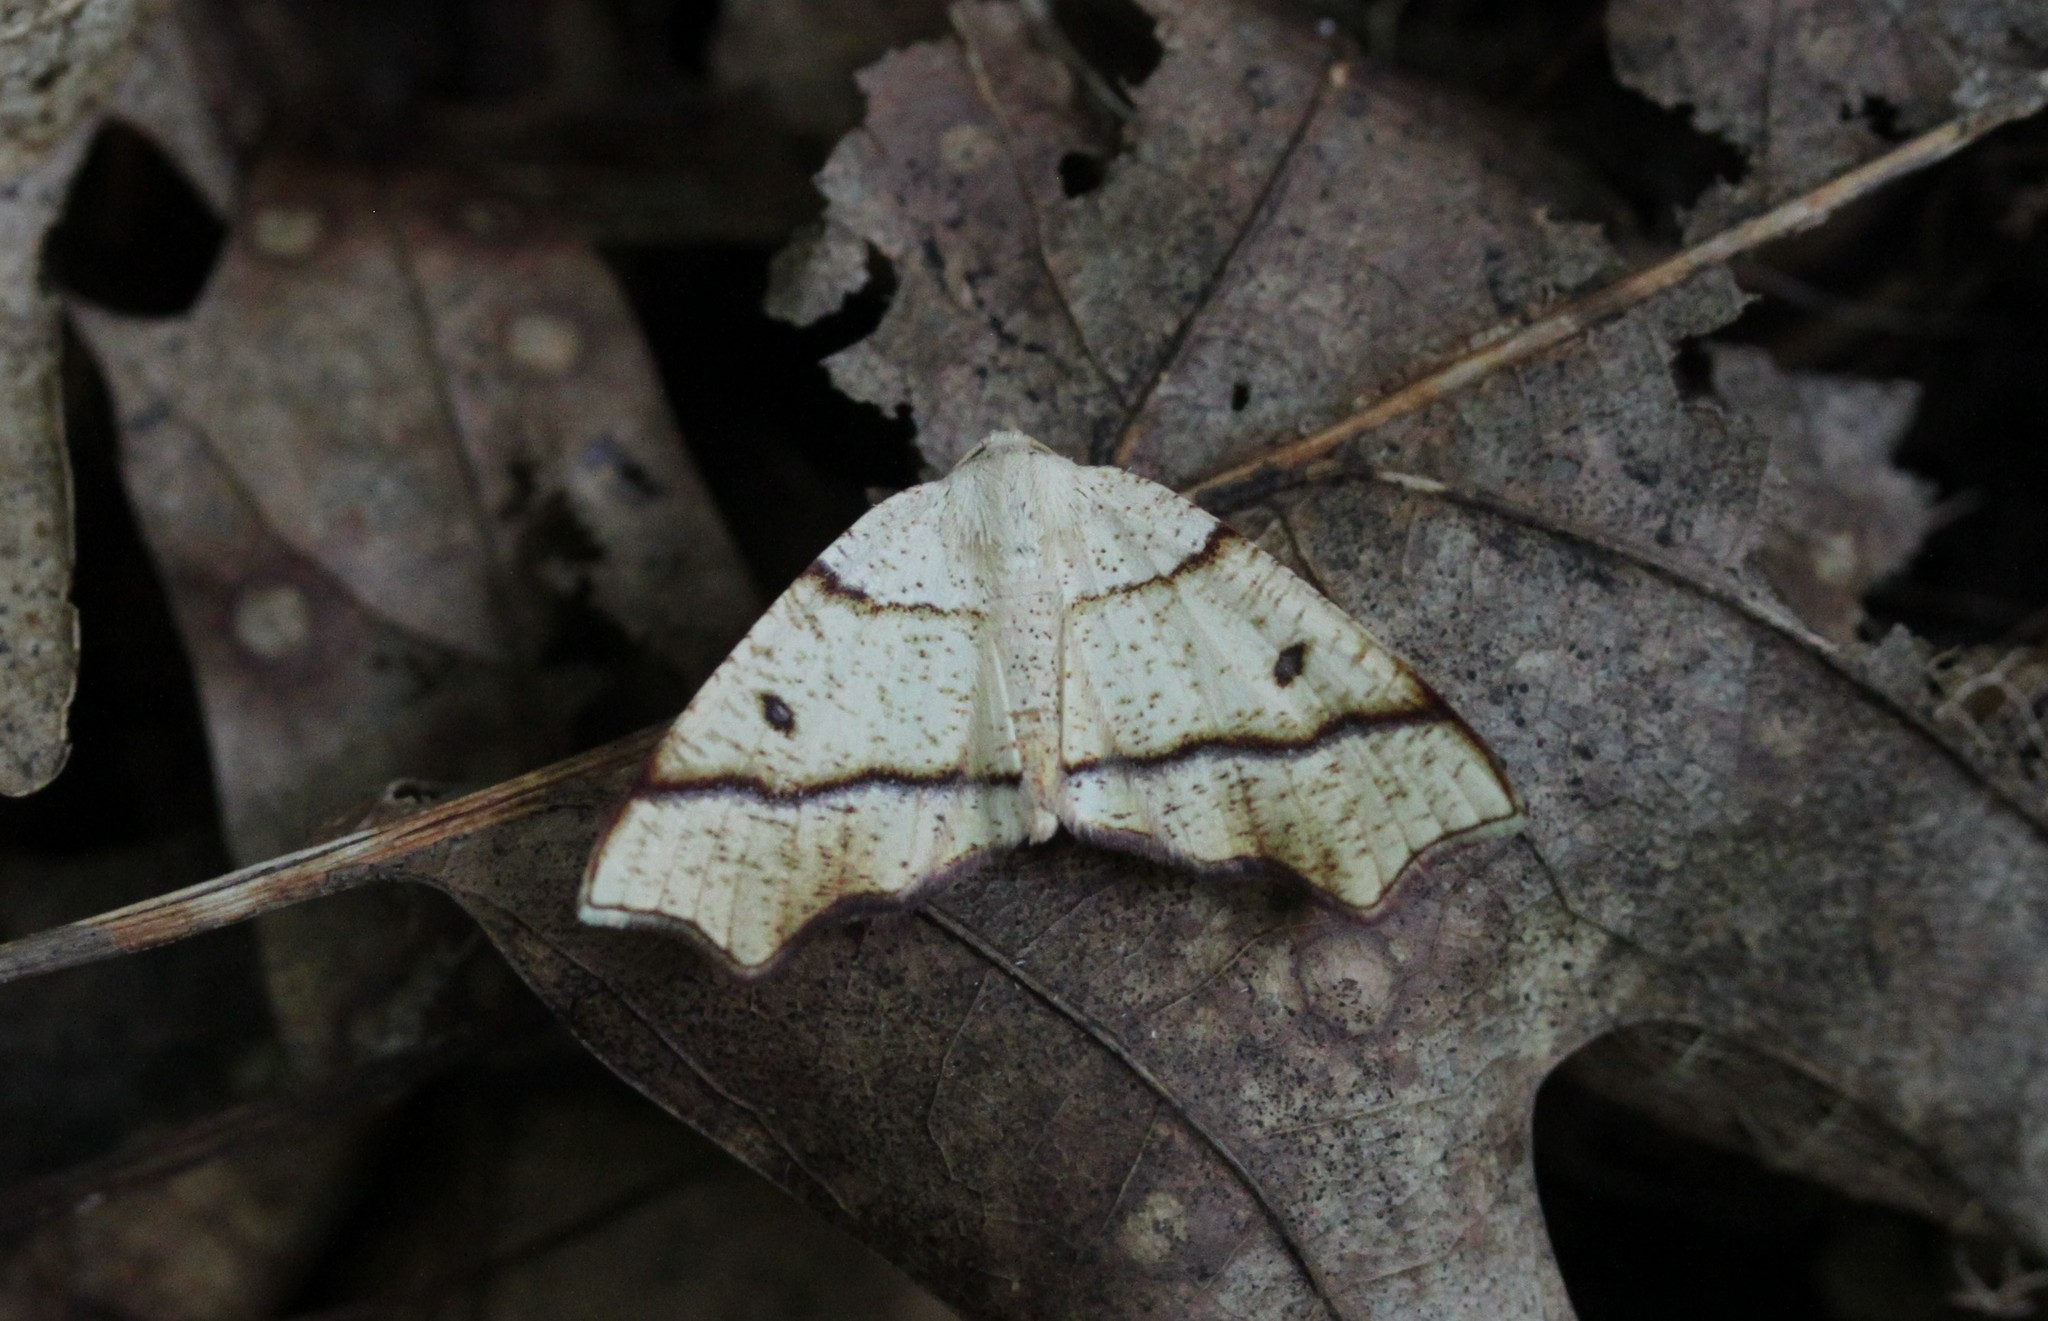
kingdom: Animalia
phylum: Arthropoda
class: Insecta
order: Lepidoptera
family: Geometridae
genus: Plagodis
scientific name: Plagodis alcoolaria
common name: Hollow-spotted plagodis
